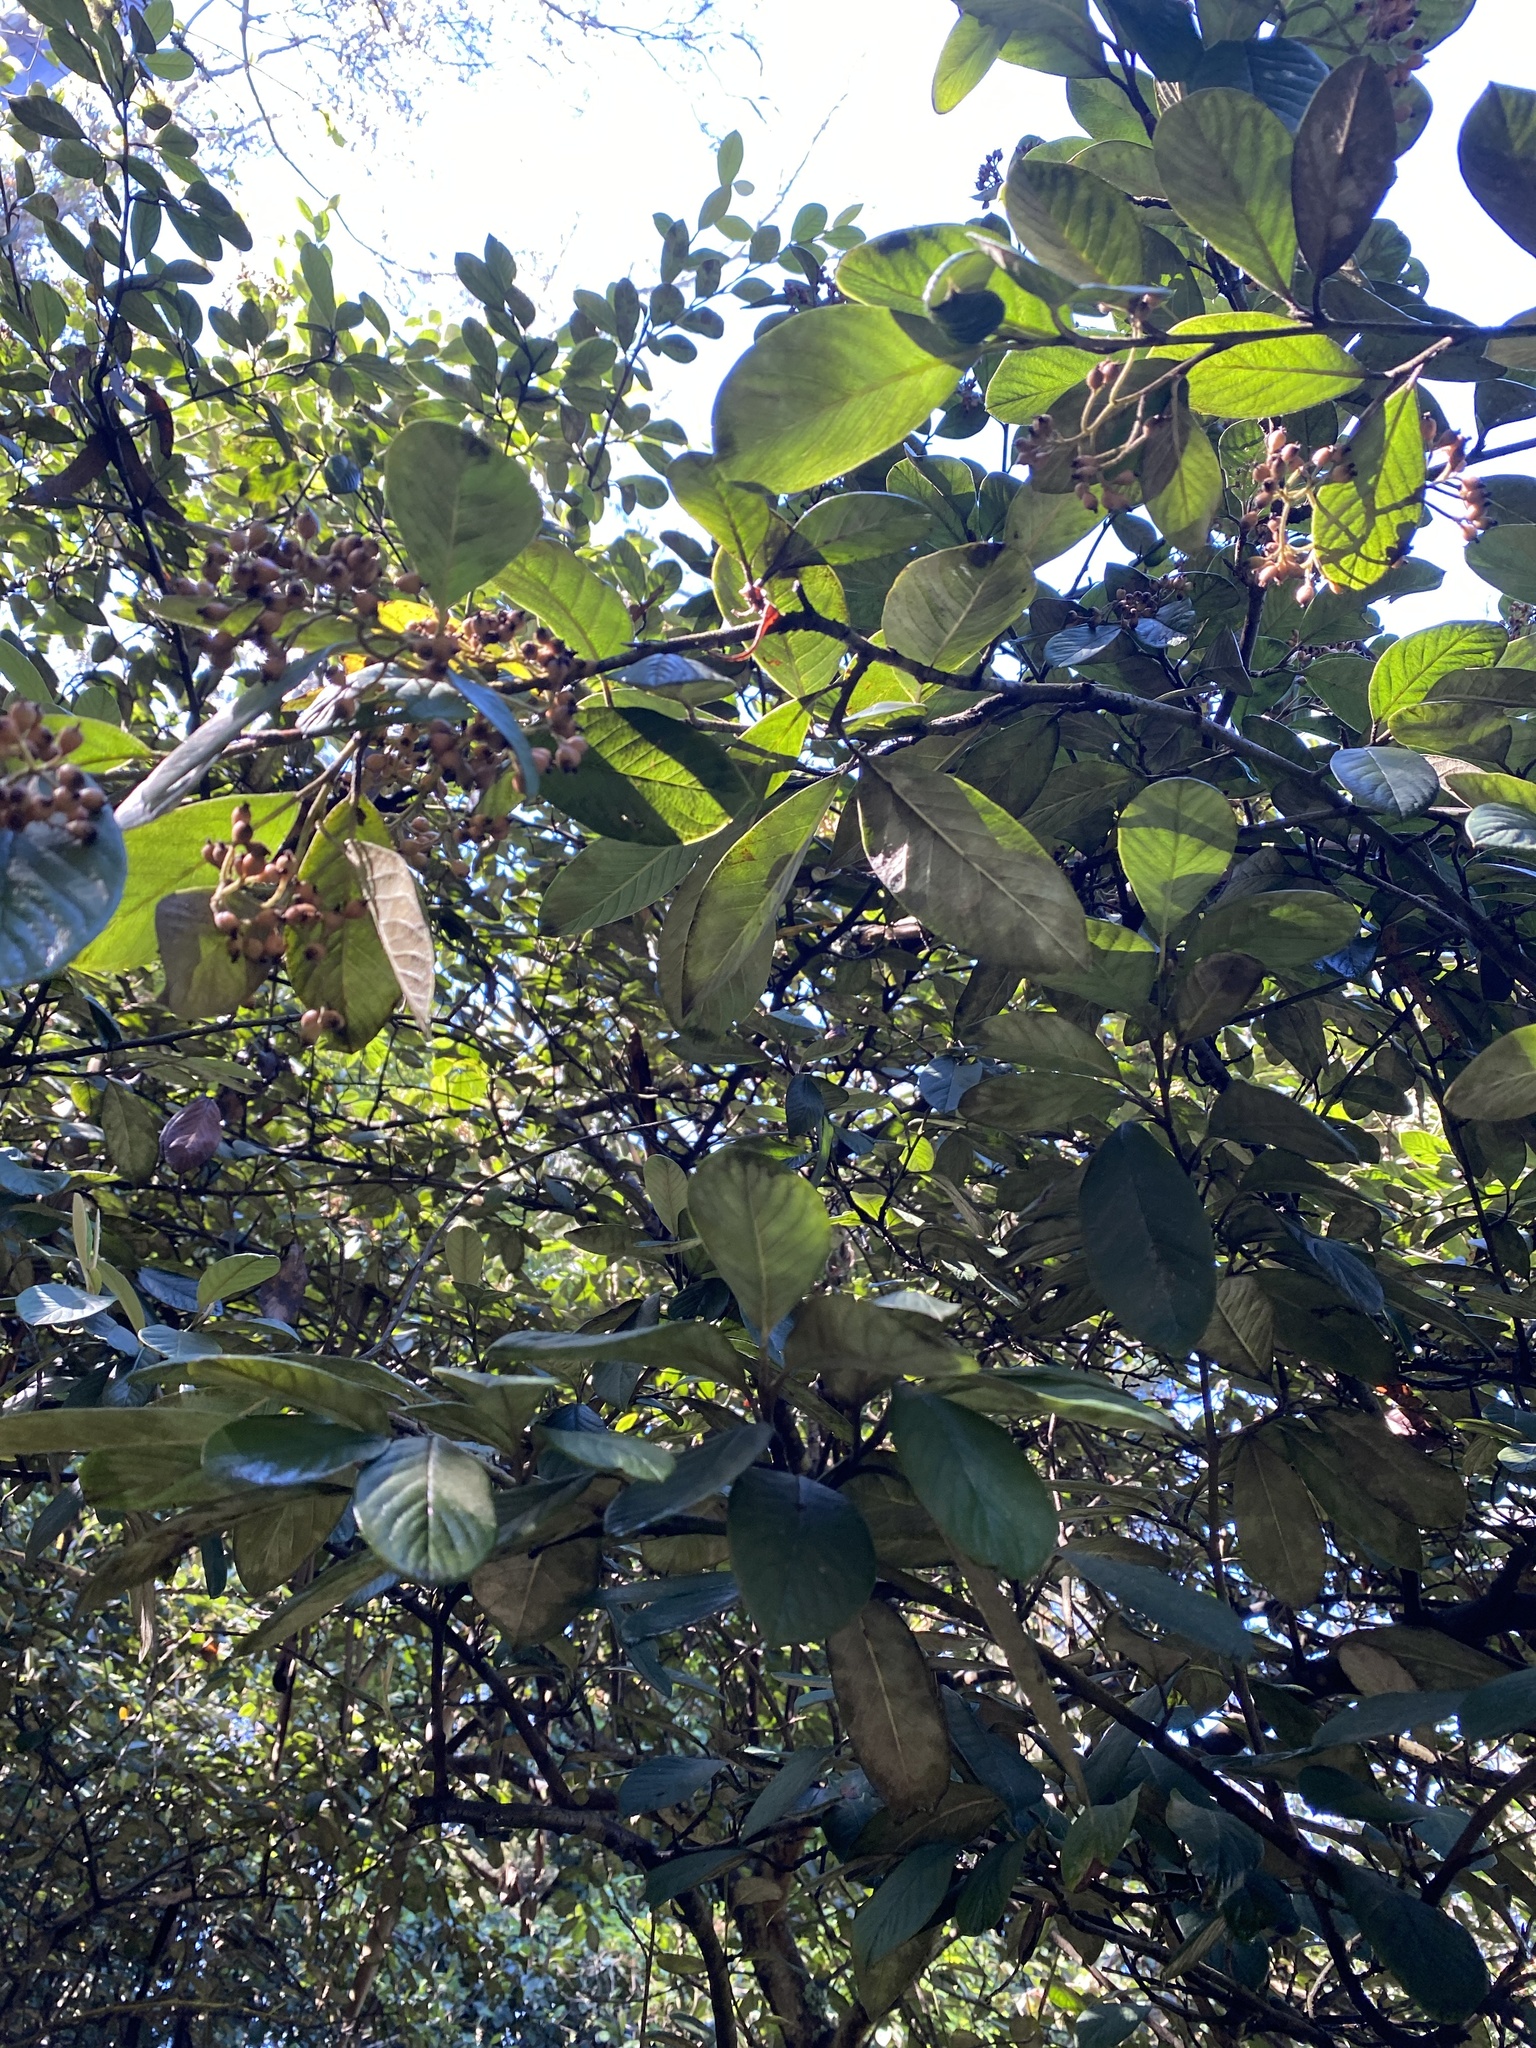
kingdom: Plantae
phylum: Tracheophyta
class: Magnoliopsida
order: Rosales
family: Rhamnaceae
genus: Frangula
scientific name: Frangula californica
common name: California buckthorn
